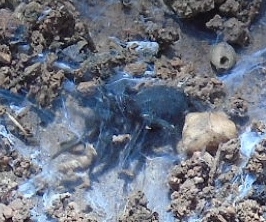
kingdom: Animalia
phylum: Arthropoda
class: Arachnida
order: Araneae
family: Euagridae
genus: Euagrus
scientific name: Euagrus
